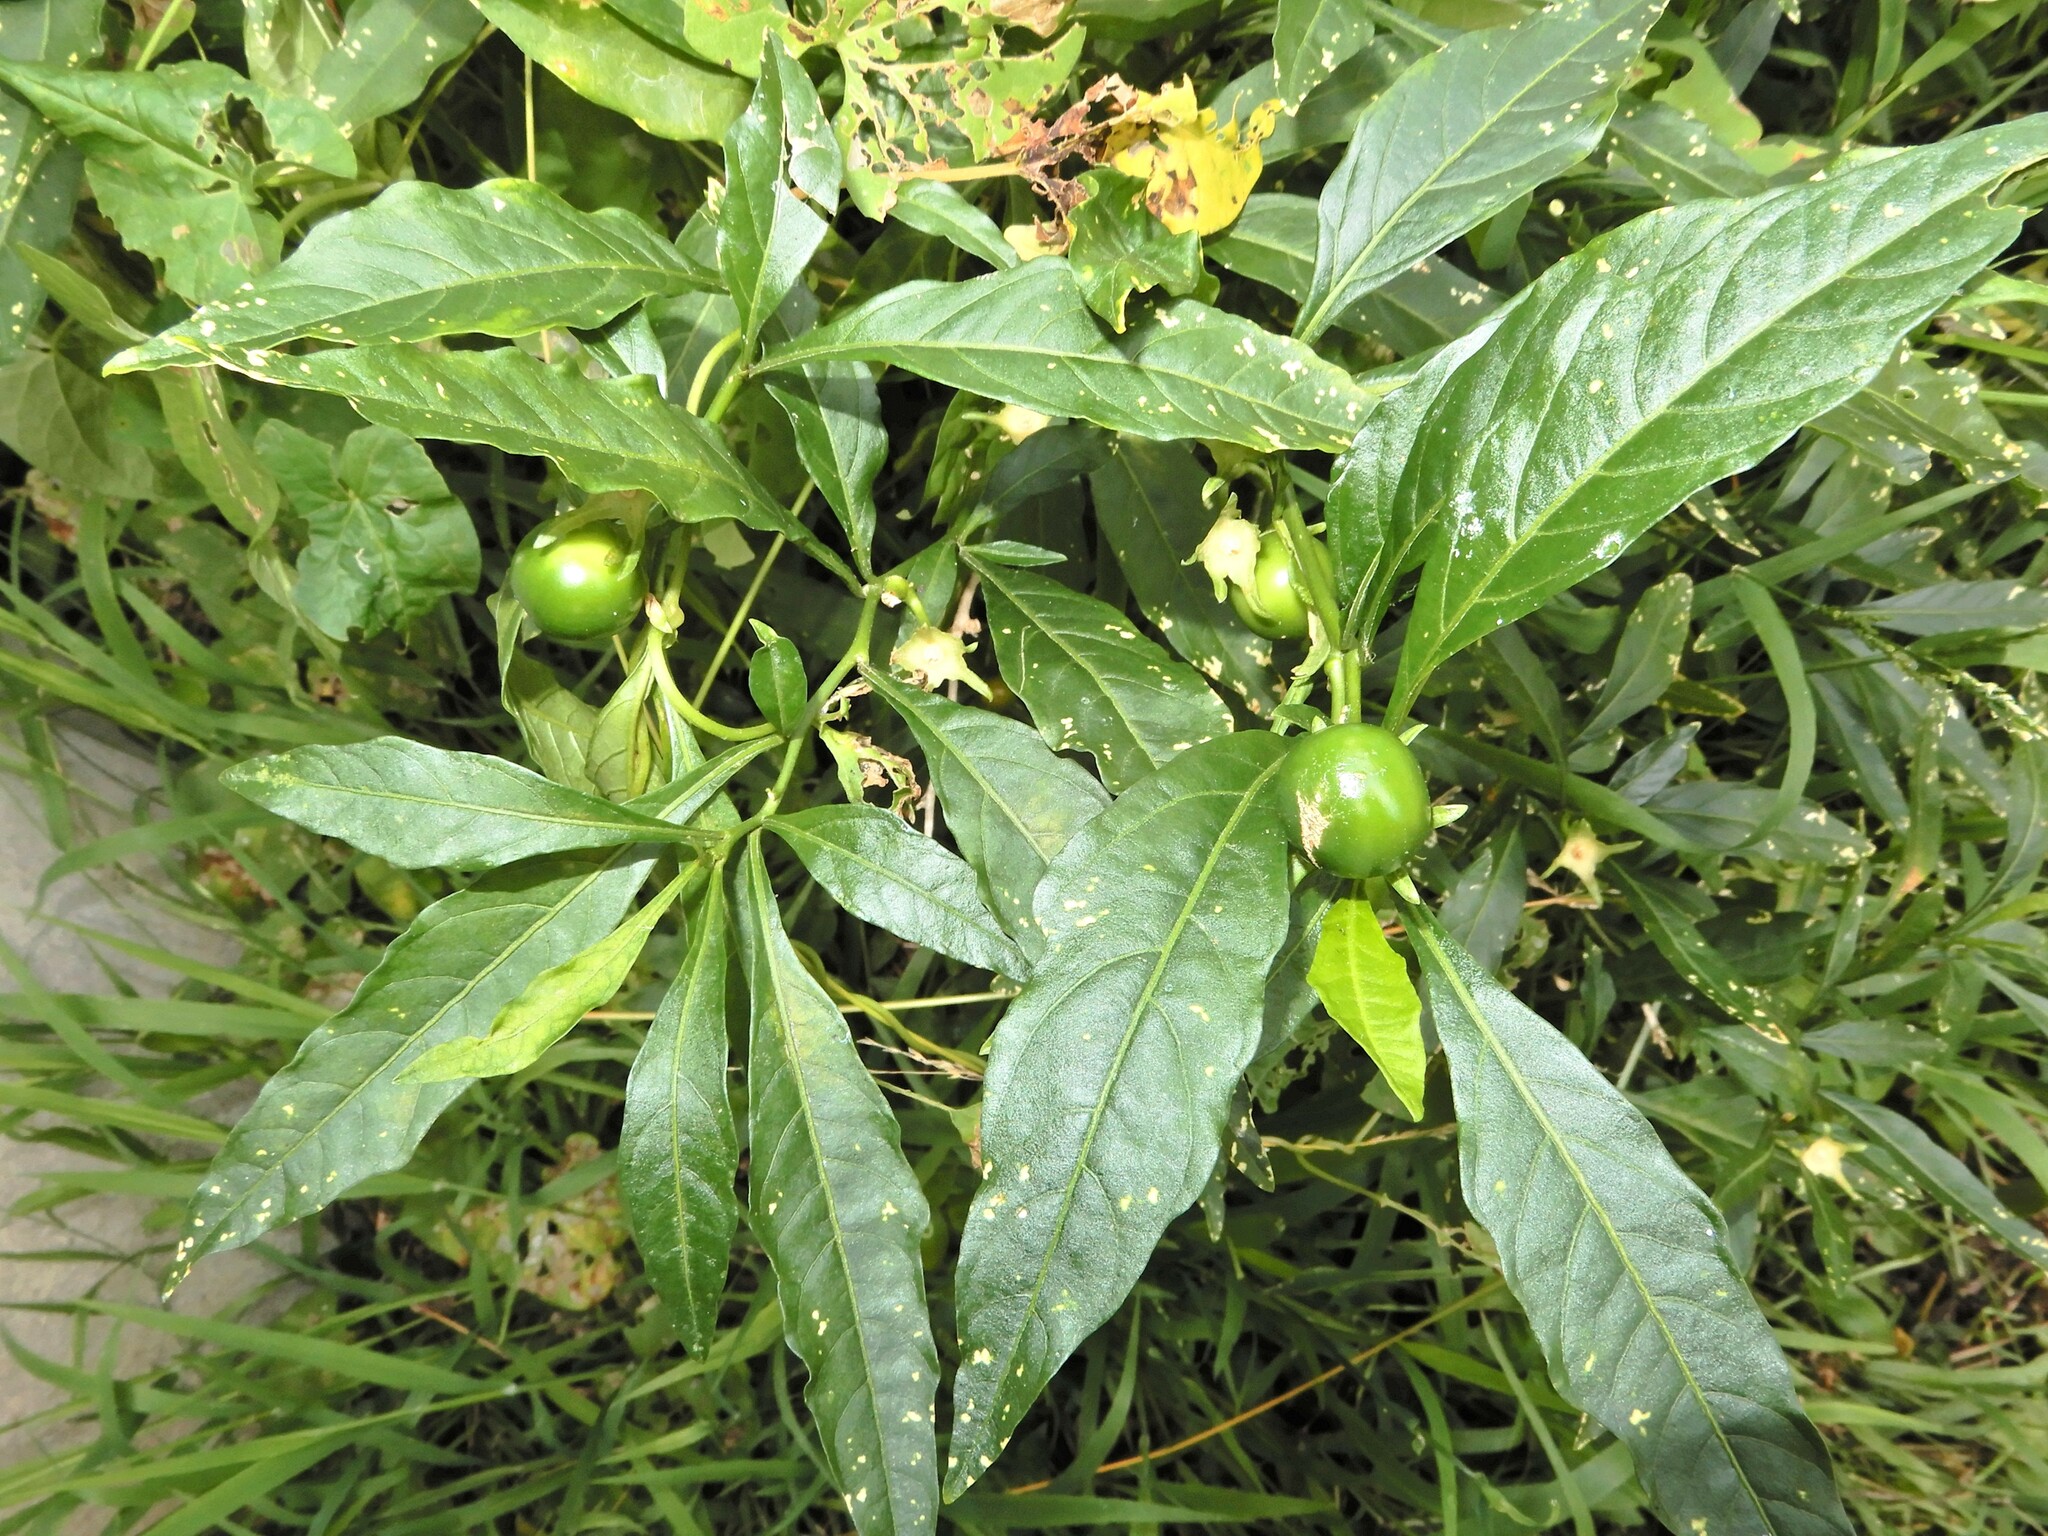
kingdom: Plantae
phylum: Tracheophyta
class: Magnoliopsida
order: Solanales
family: Solanaceae
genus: Solanum
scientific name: Solanum pseudocapsicum
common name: Jerusalem cherry
